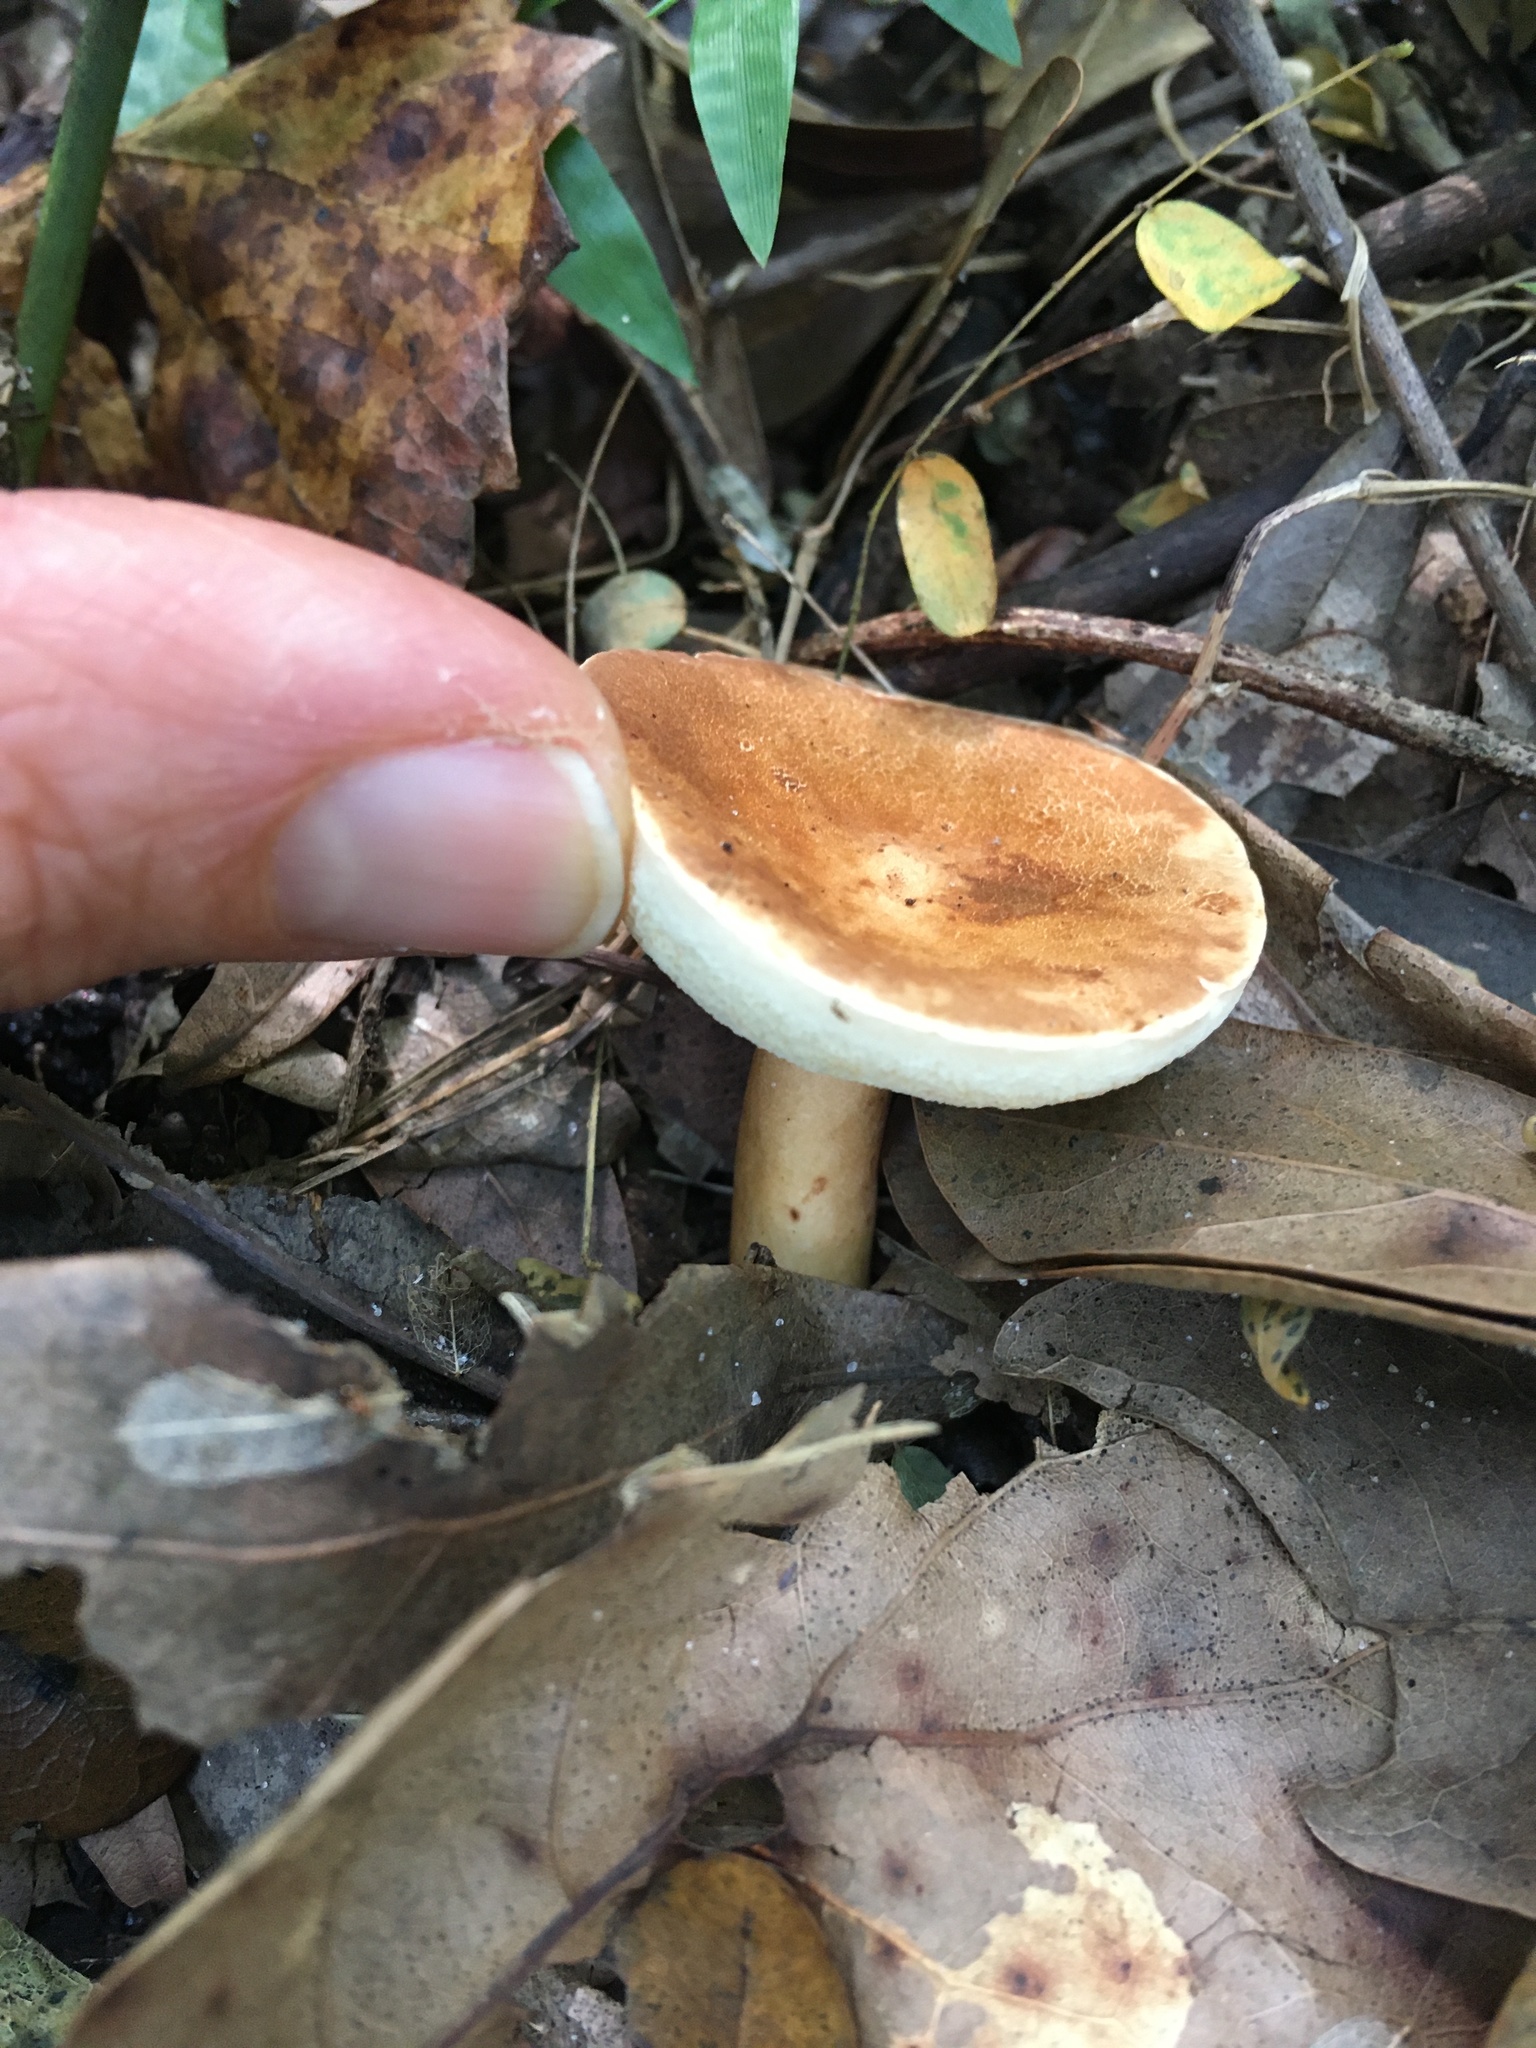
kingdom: Fungi
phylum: Basidiomycota
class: Agaricomycetes
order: Boletales
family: Gyroporaceae
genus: Gyroporus
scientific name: Gyroporus castaneus
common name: Chestnut bolete
